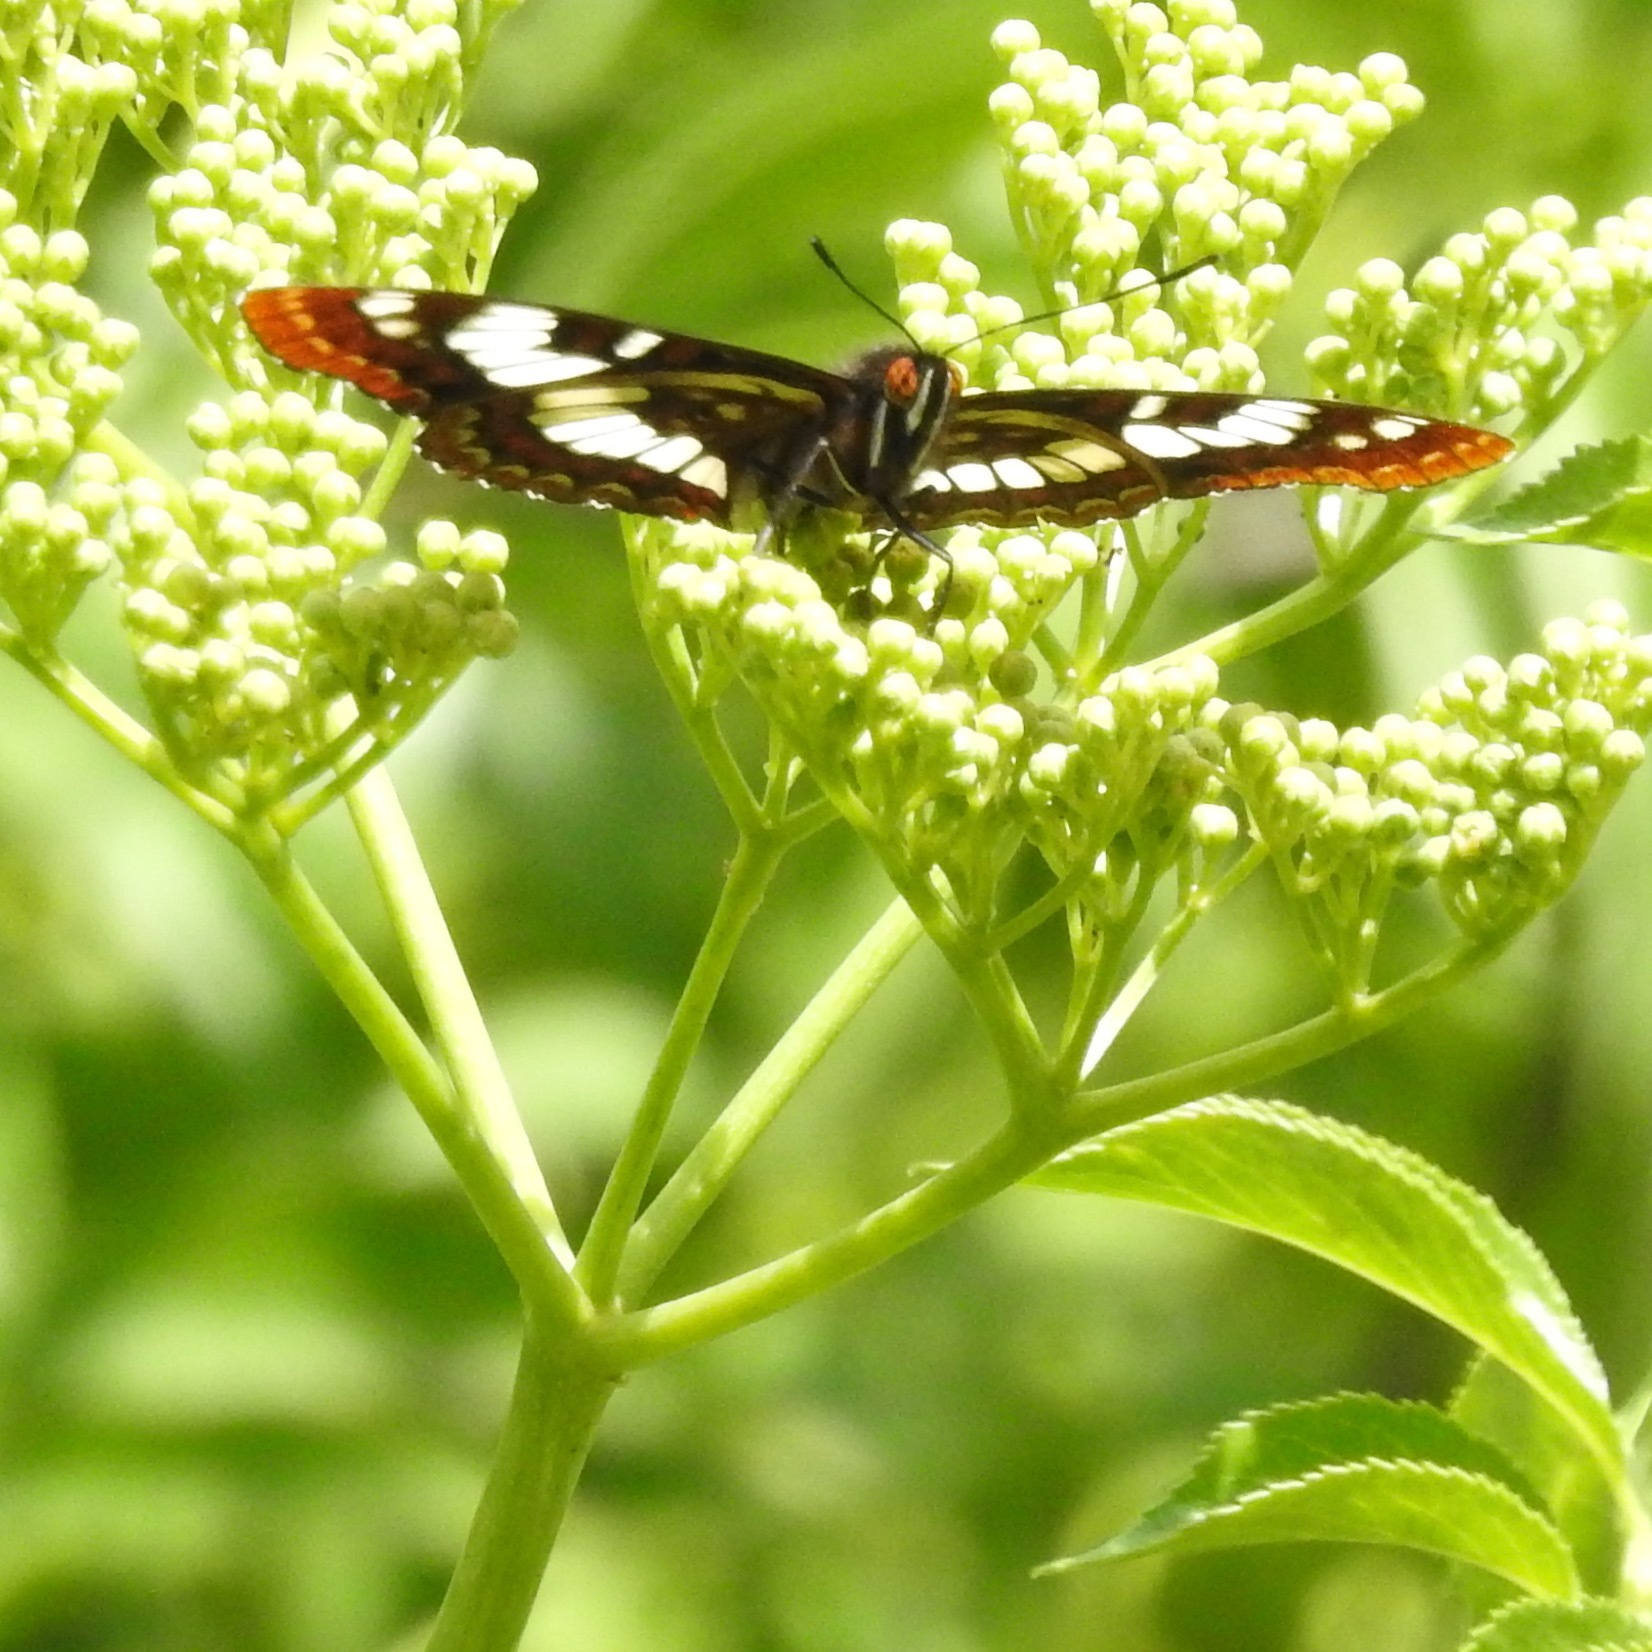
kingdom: Plantae
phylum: Tracheophyta
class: Magnoliopsida
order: Dipsacales
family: Viburnaceae
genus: Sambucus
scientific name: Sambucus cerulea
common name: Blue elder
